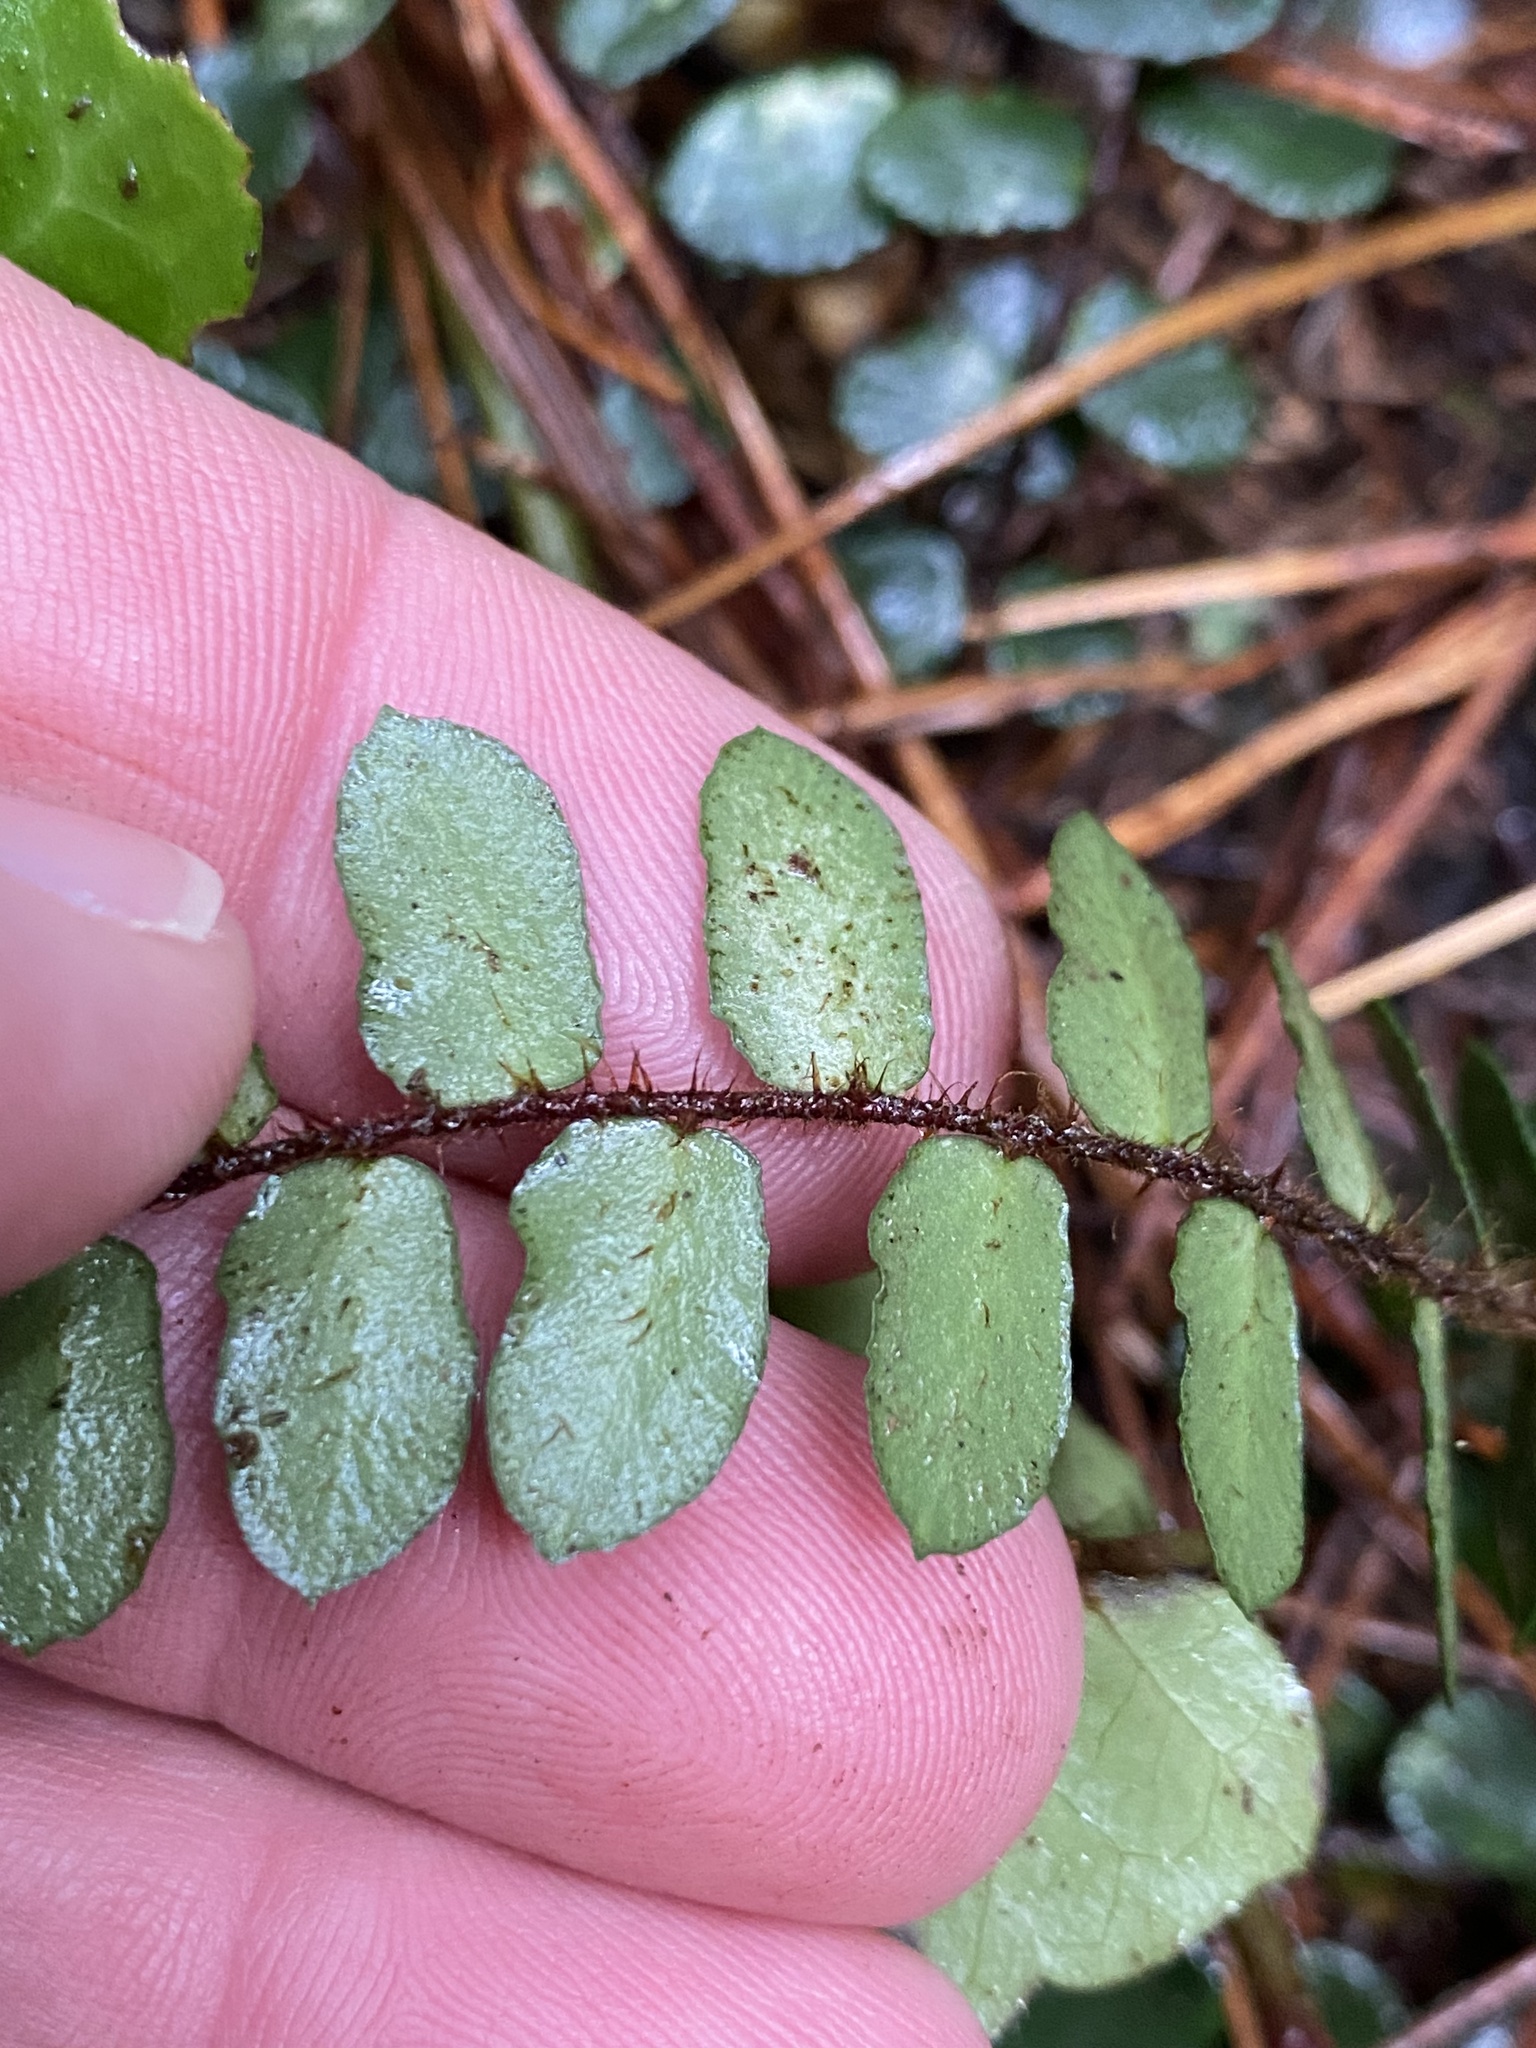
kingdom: Plantae
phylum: Tracheophyta
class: Polypodiopsida
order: Polypodiales
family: Pteridaceae
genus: Pellaea
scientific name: Pellaea rotundifolia
